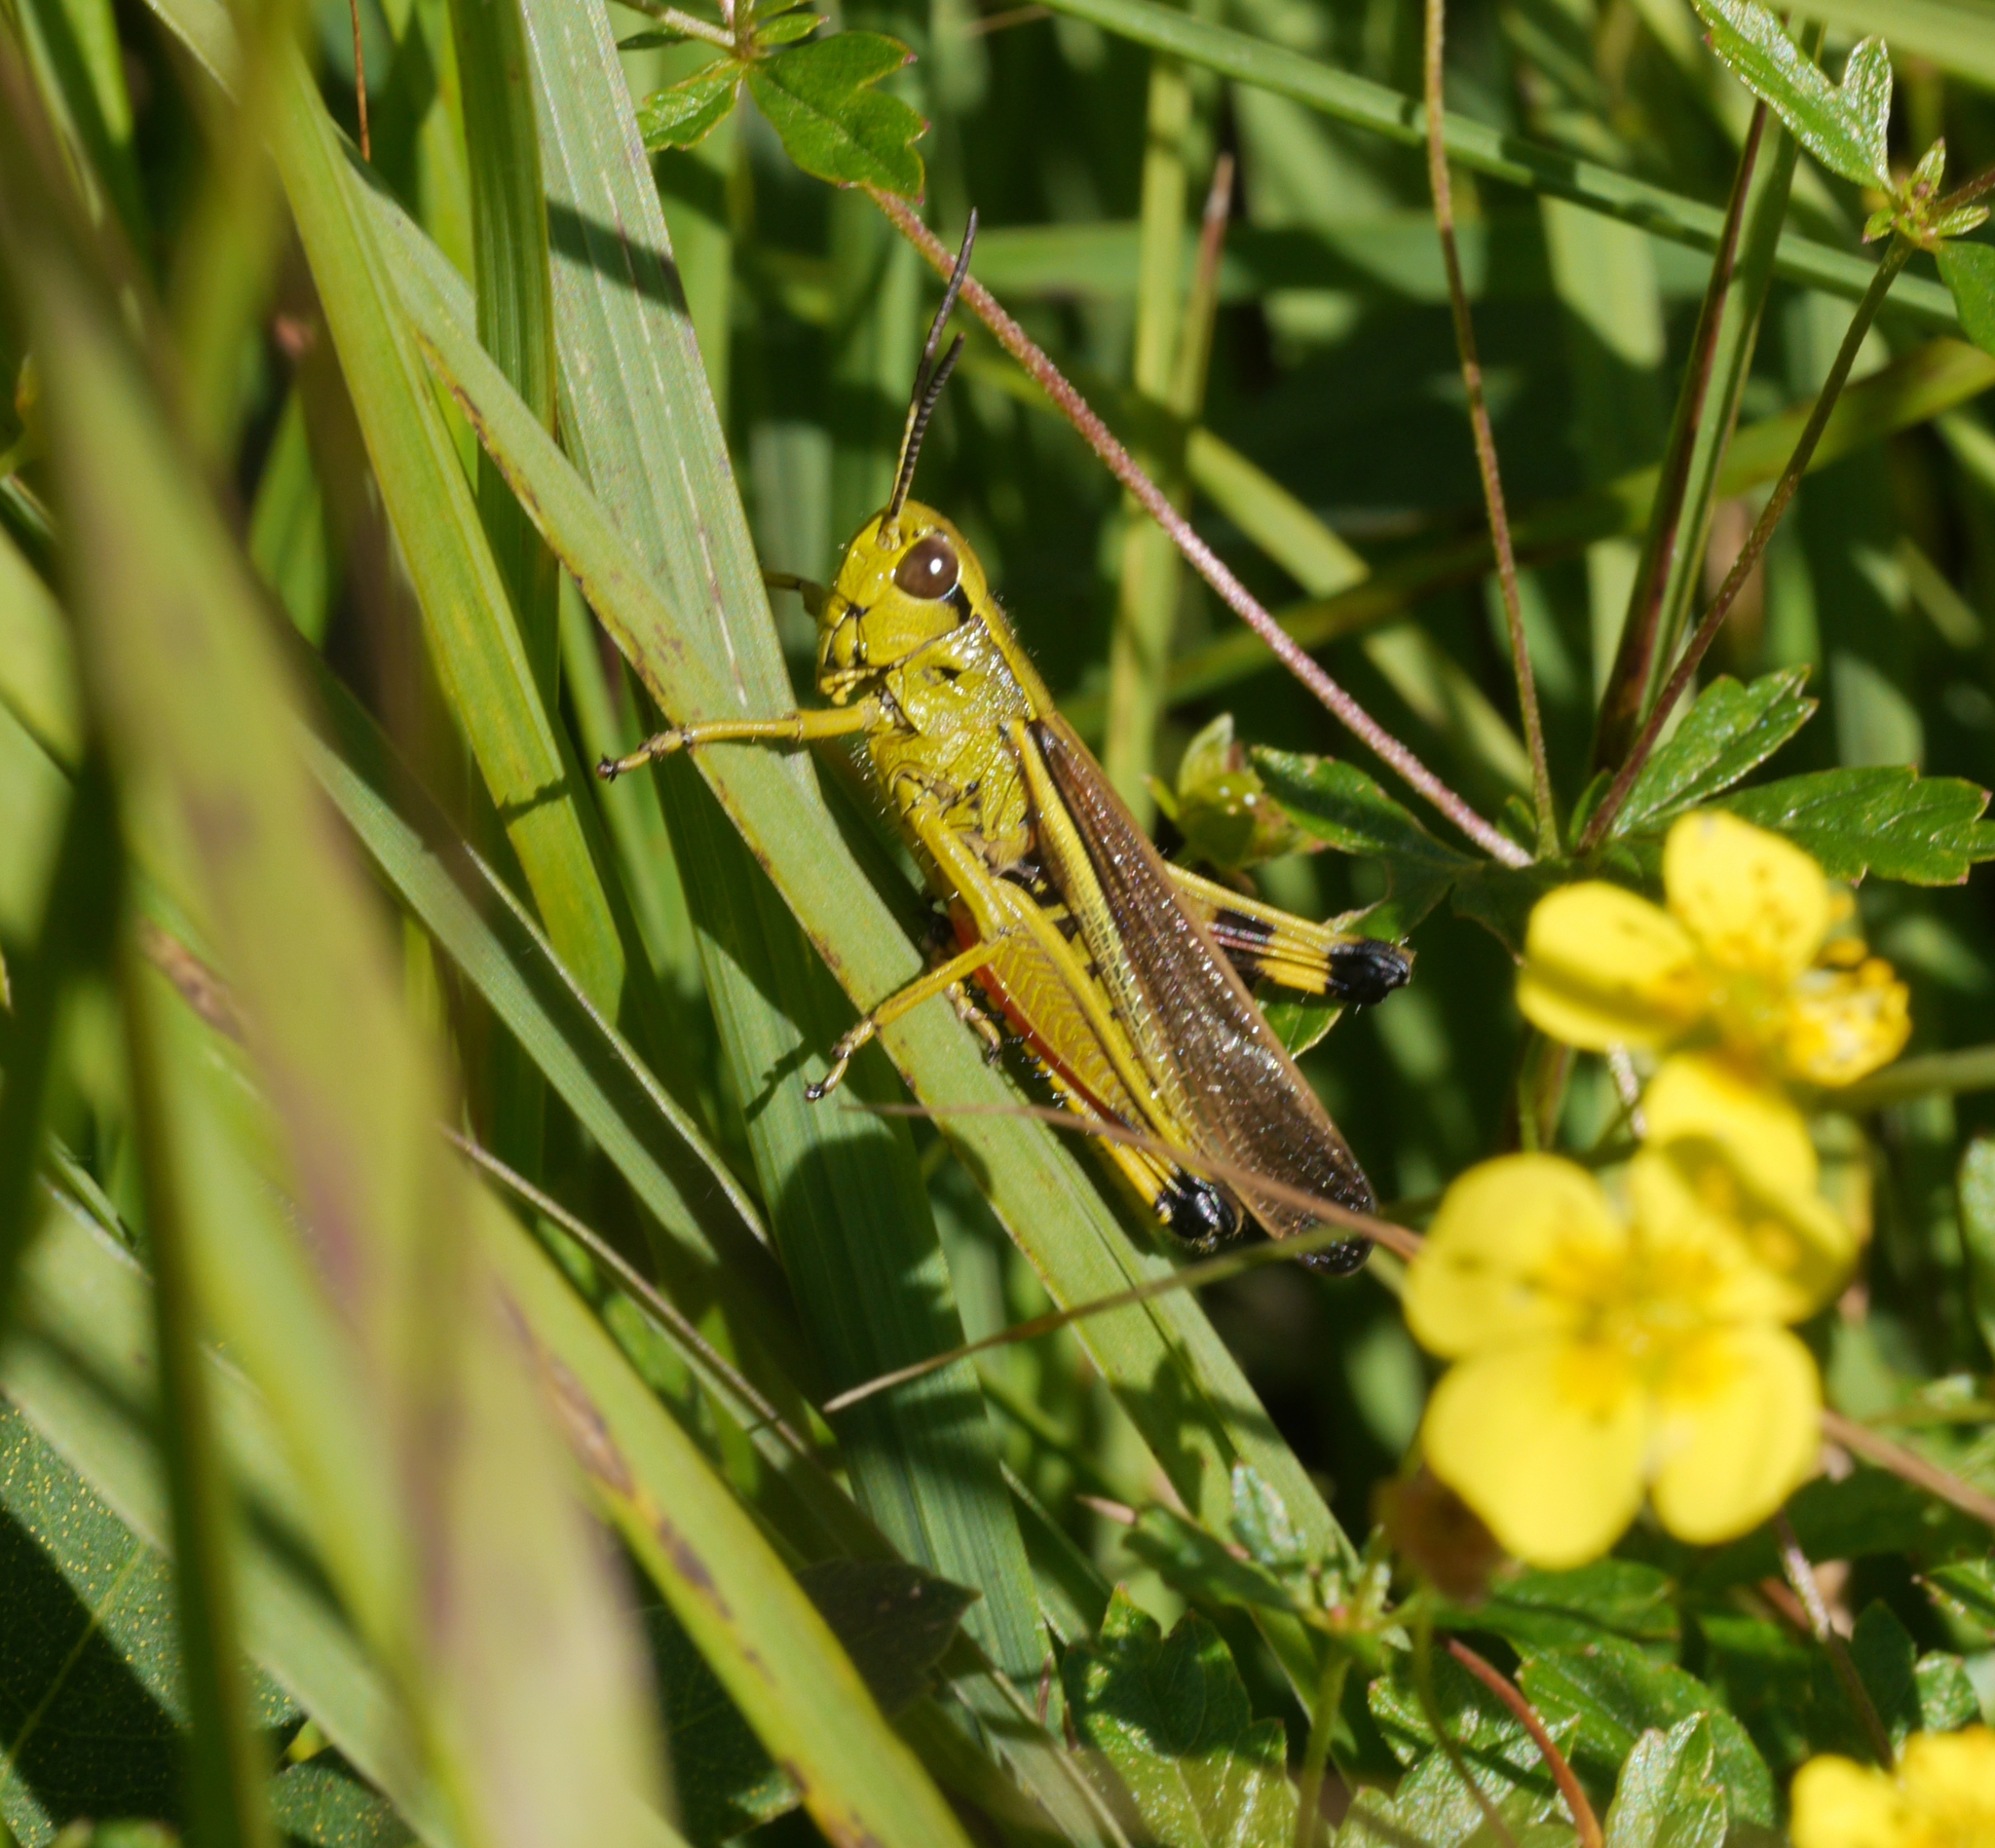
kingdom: Animalia
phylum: Arthropoda
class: Insecta
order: Orthoptera
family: Acrididae
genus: Stethophyma
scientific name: Stethophyma grossum
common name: Large marsh grasshopper
